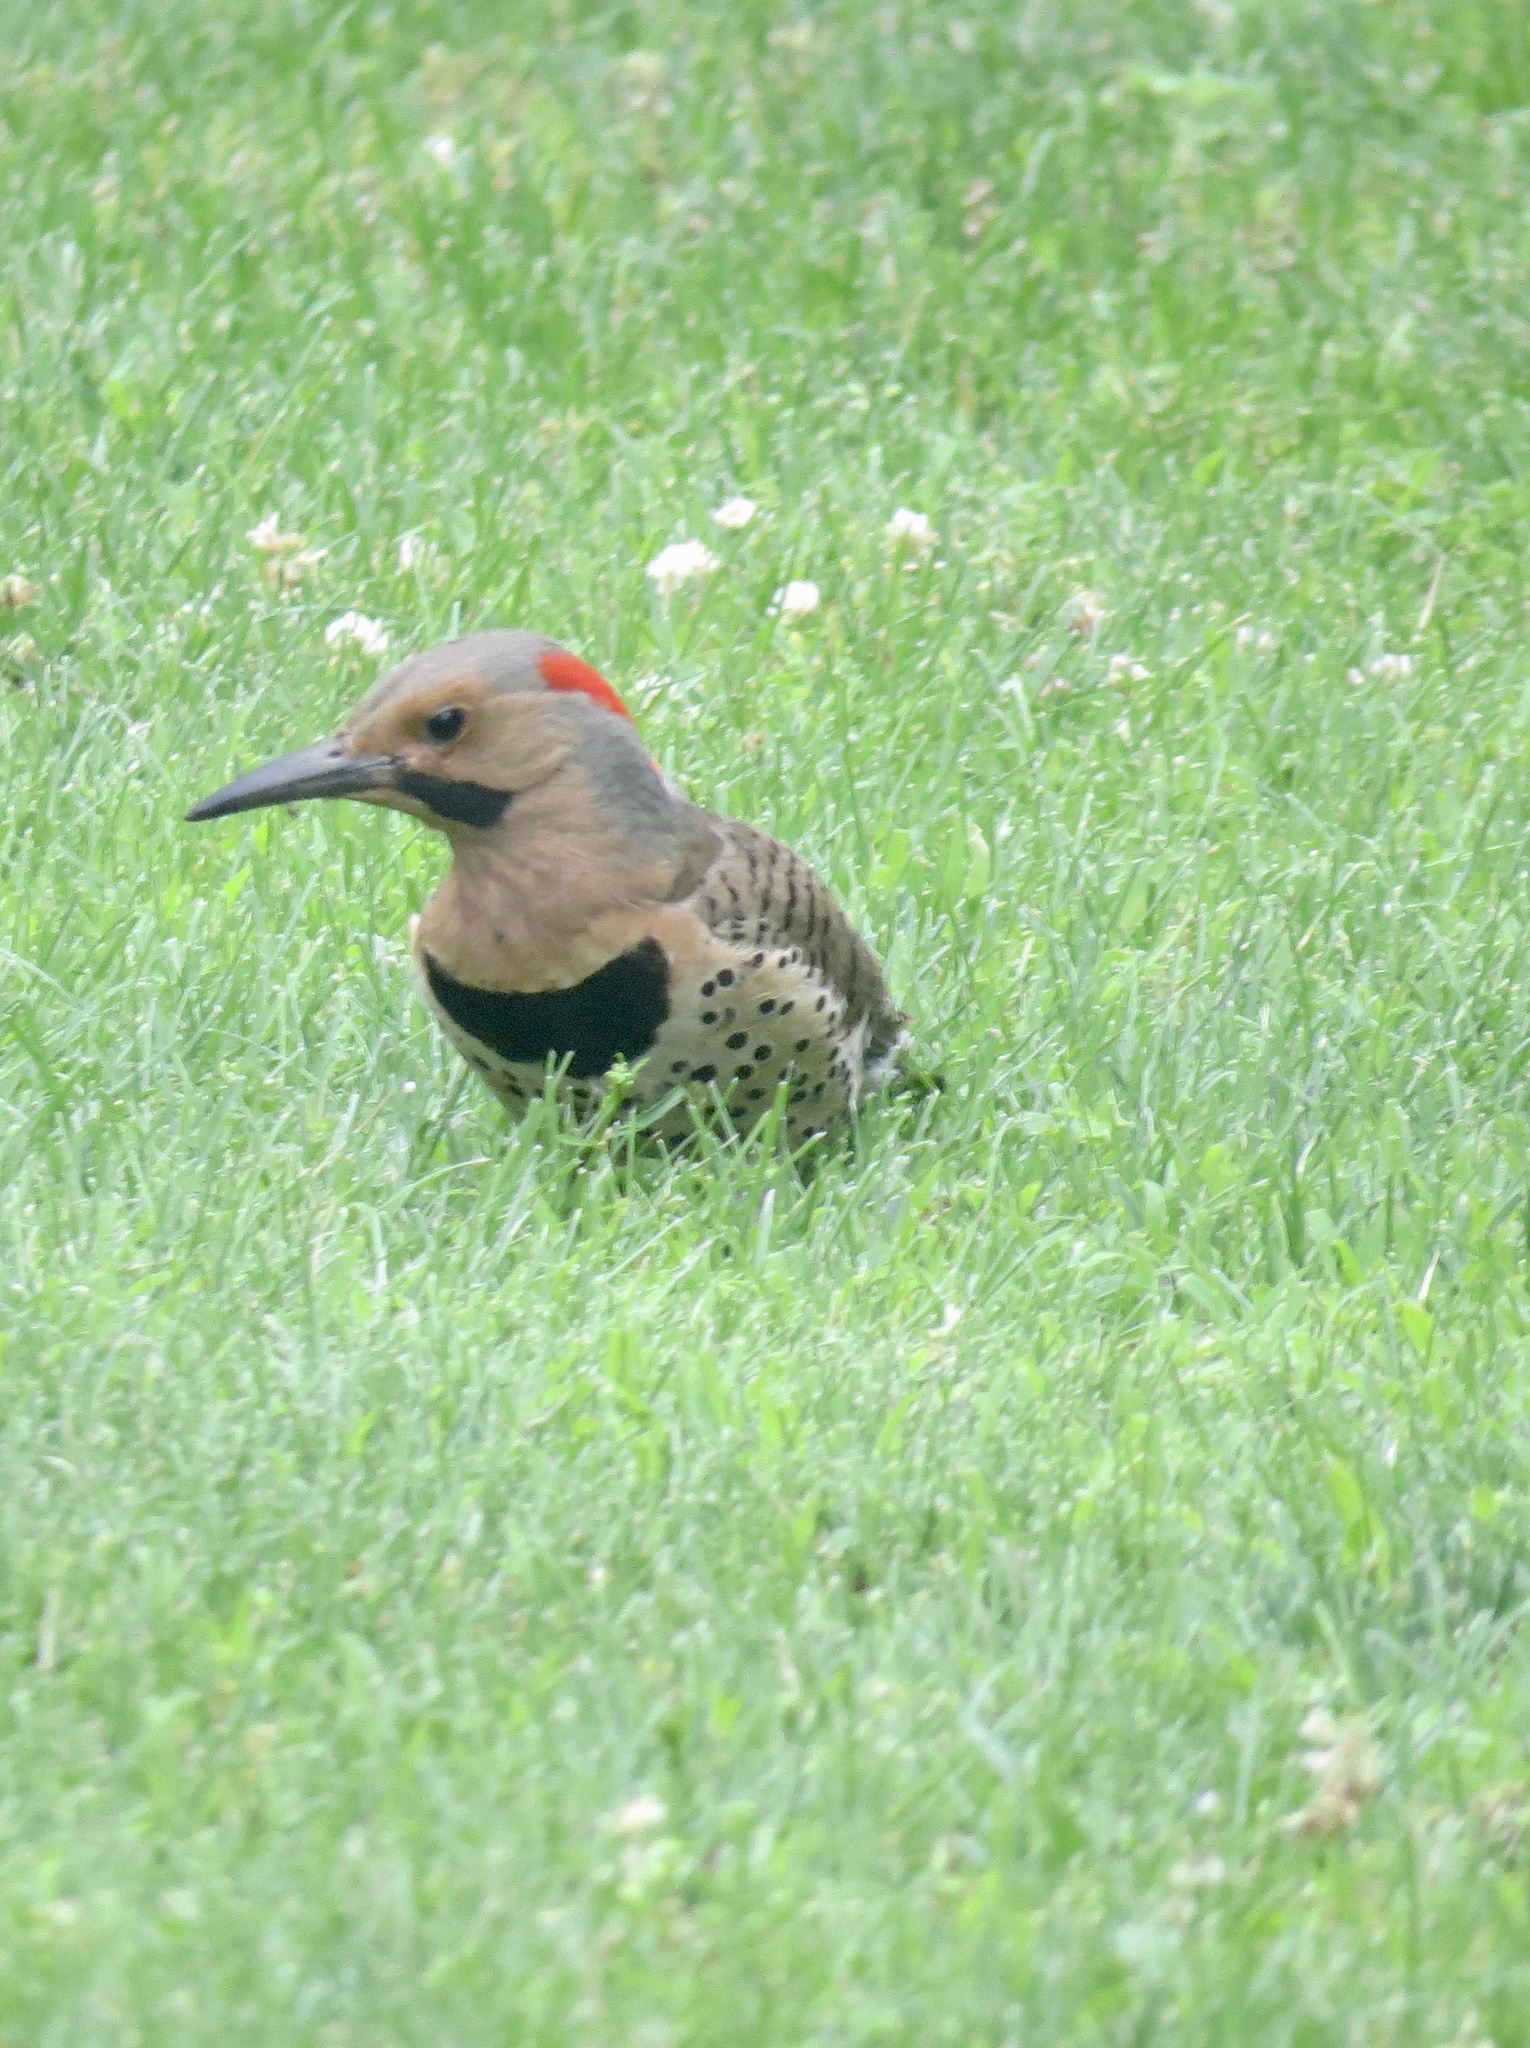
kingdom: Animalia
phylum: Chordata
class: Aves
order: Piciformes
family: Picidae
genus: Colaptes
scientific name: Colaptes auratus
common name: Northern flicker
